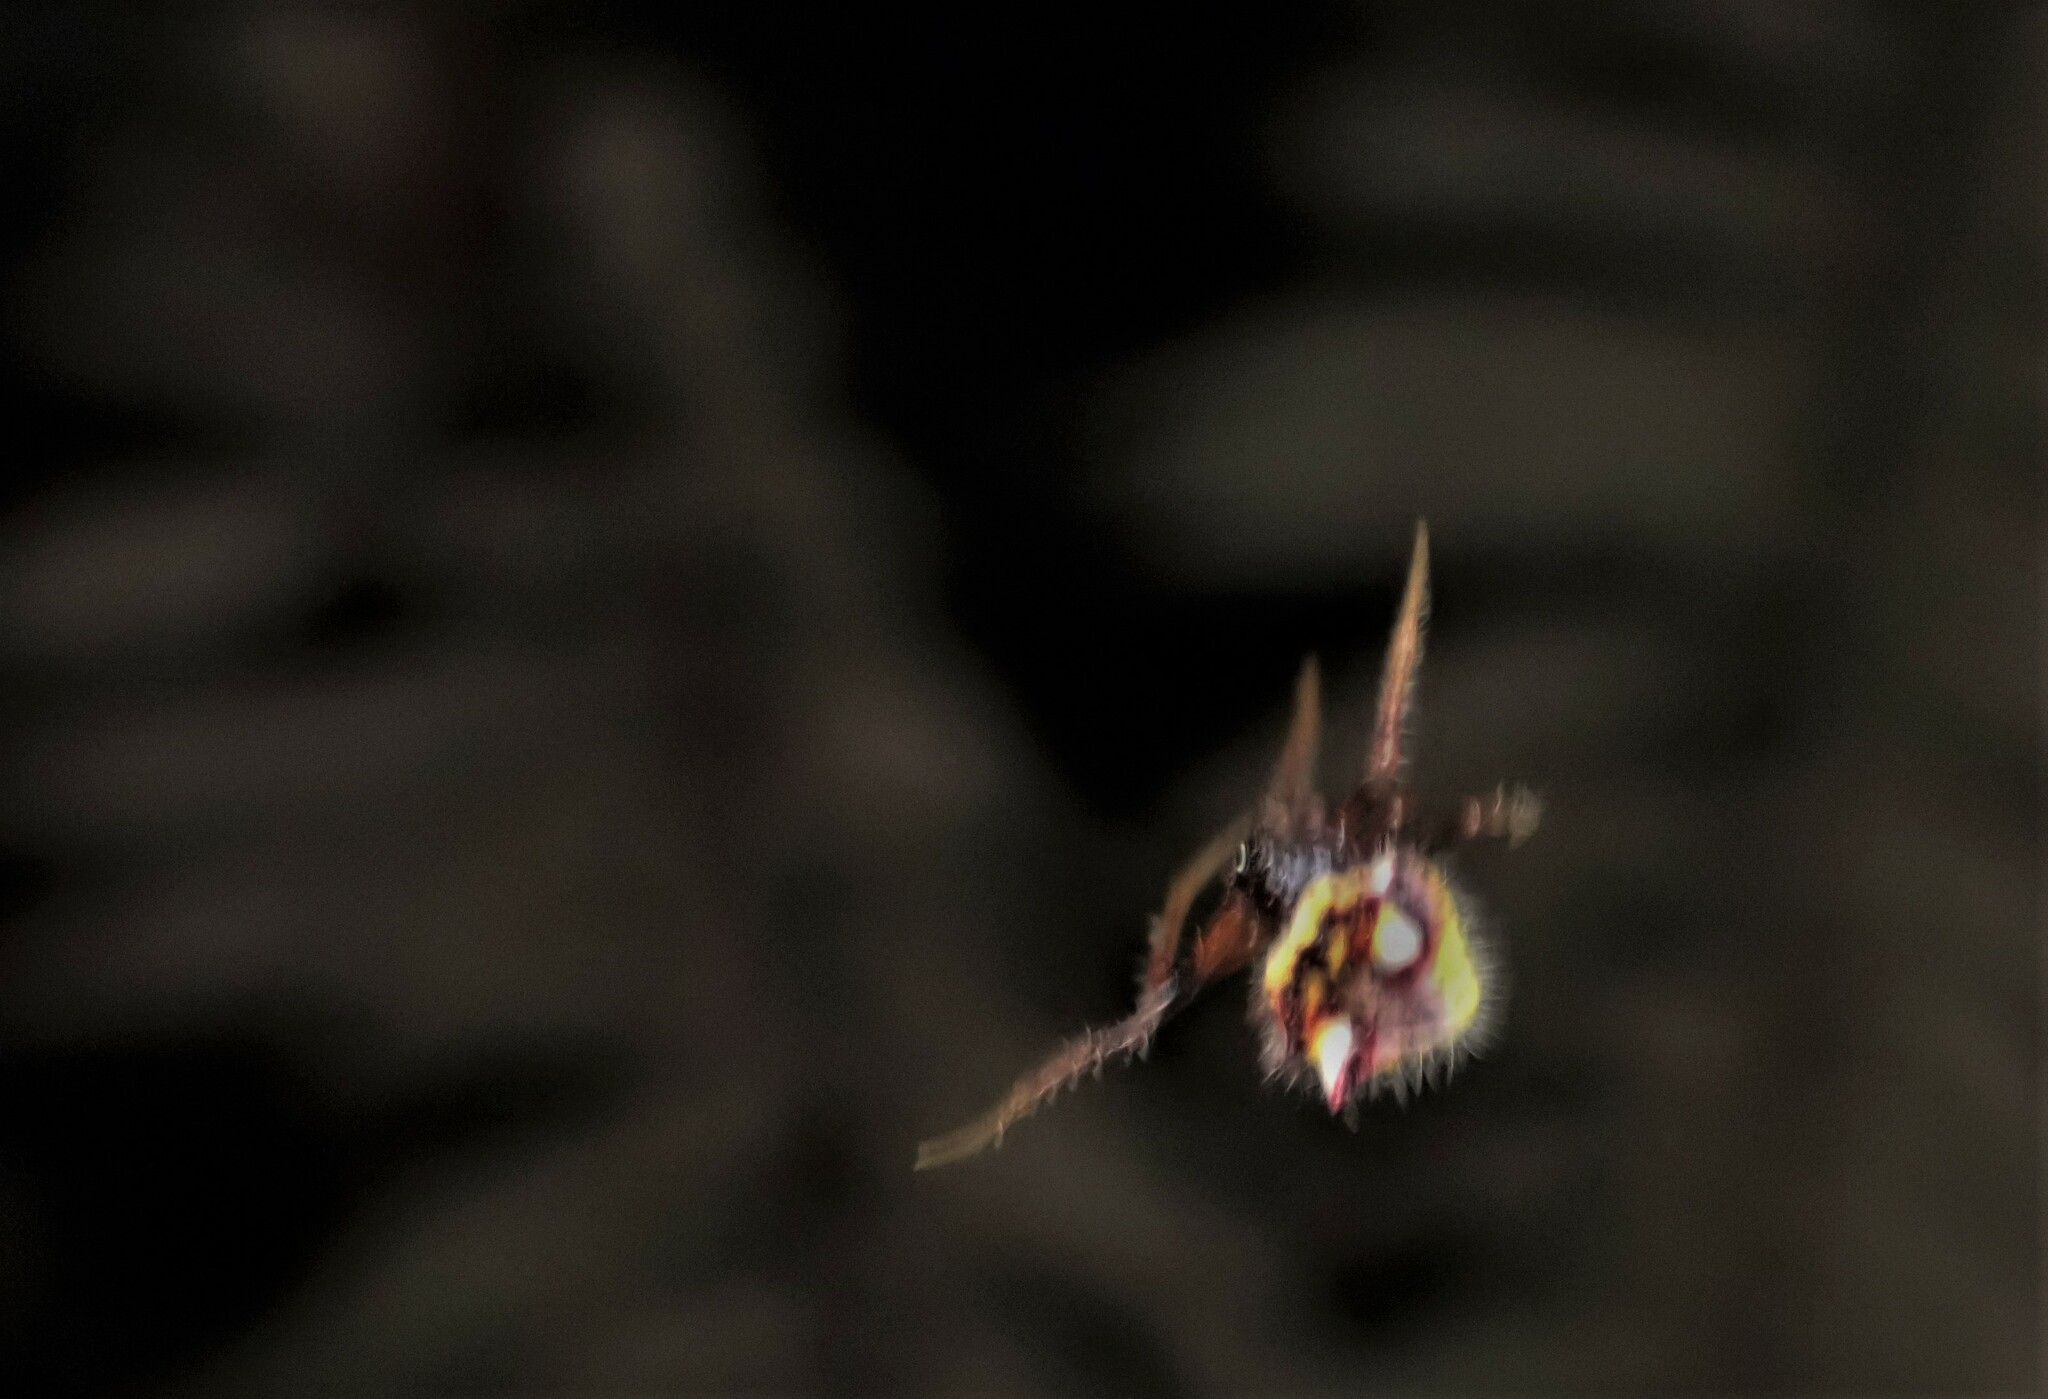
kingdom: Animalia
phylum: Arthropoda
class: Arachnida
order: Araneae
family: Araneidae
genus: Poecilopachys
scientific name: Poecilopachys australasia
